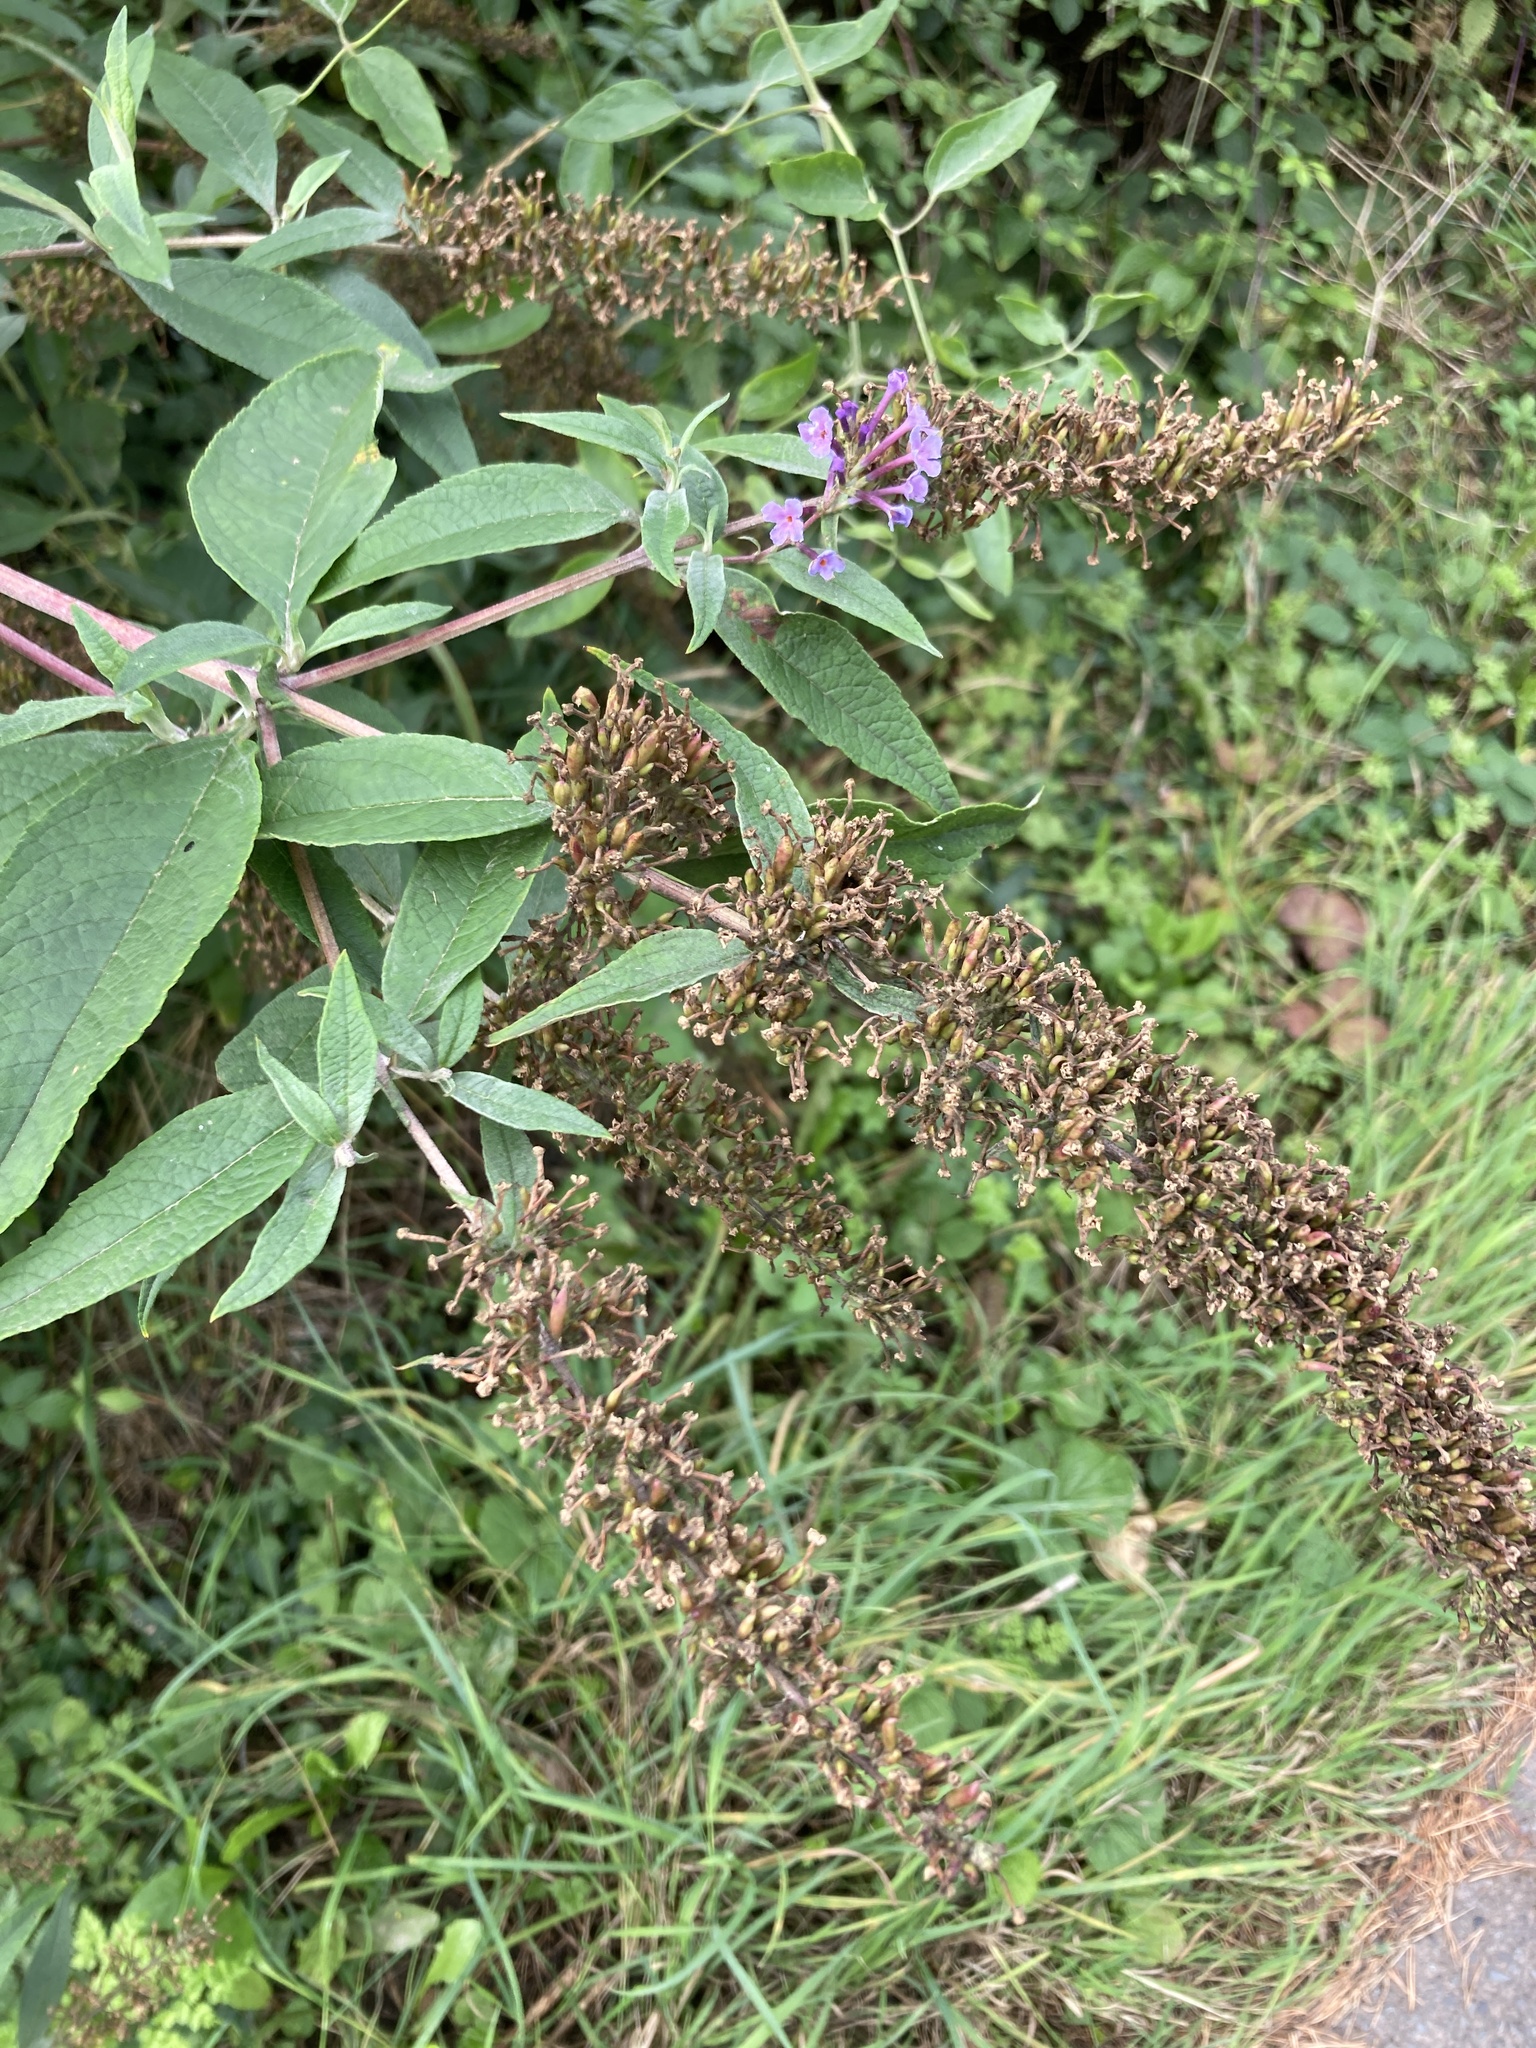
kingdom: Plantae
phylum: Tracheophyta
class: Magnoliopsida
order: Lamiales
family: Scrophulariaceae
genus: Buddleja
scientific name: Buddleja davidii
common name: Butterfly-bush
